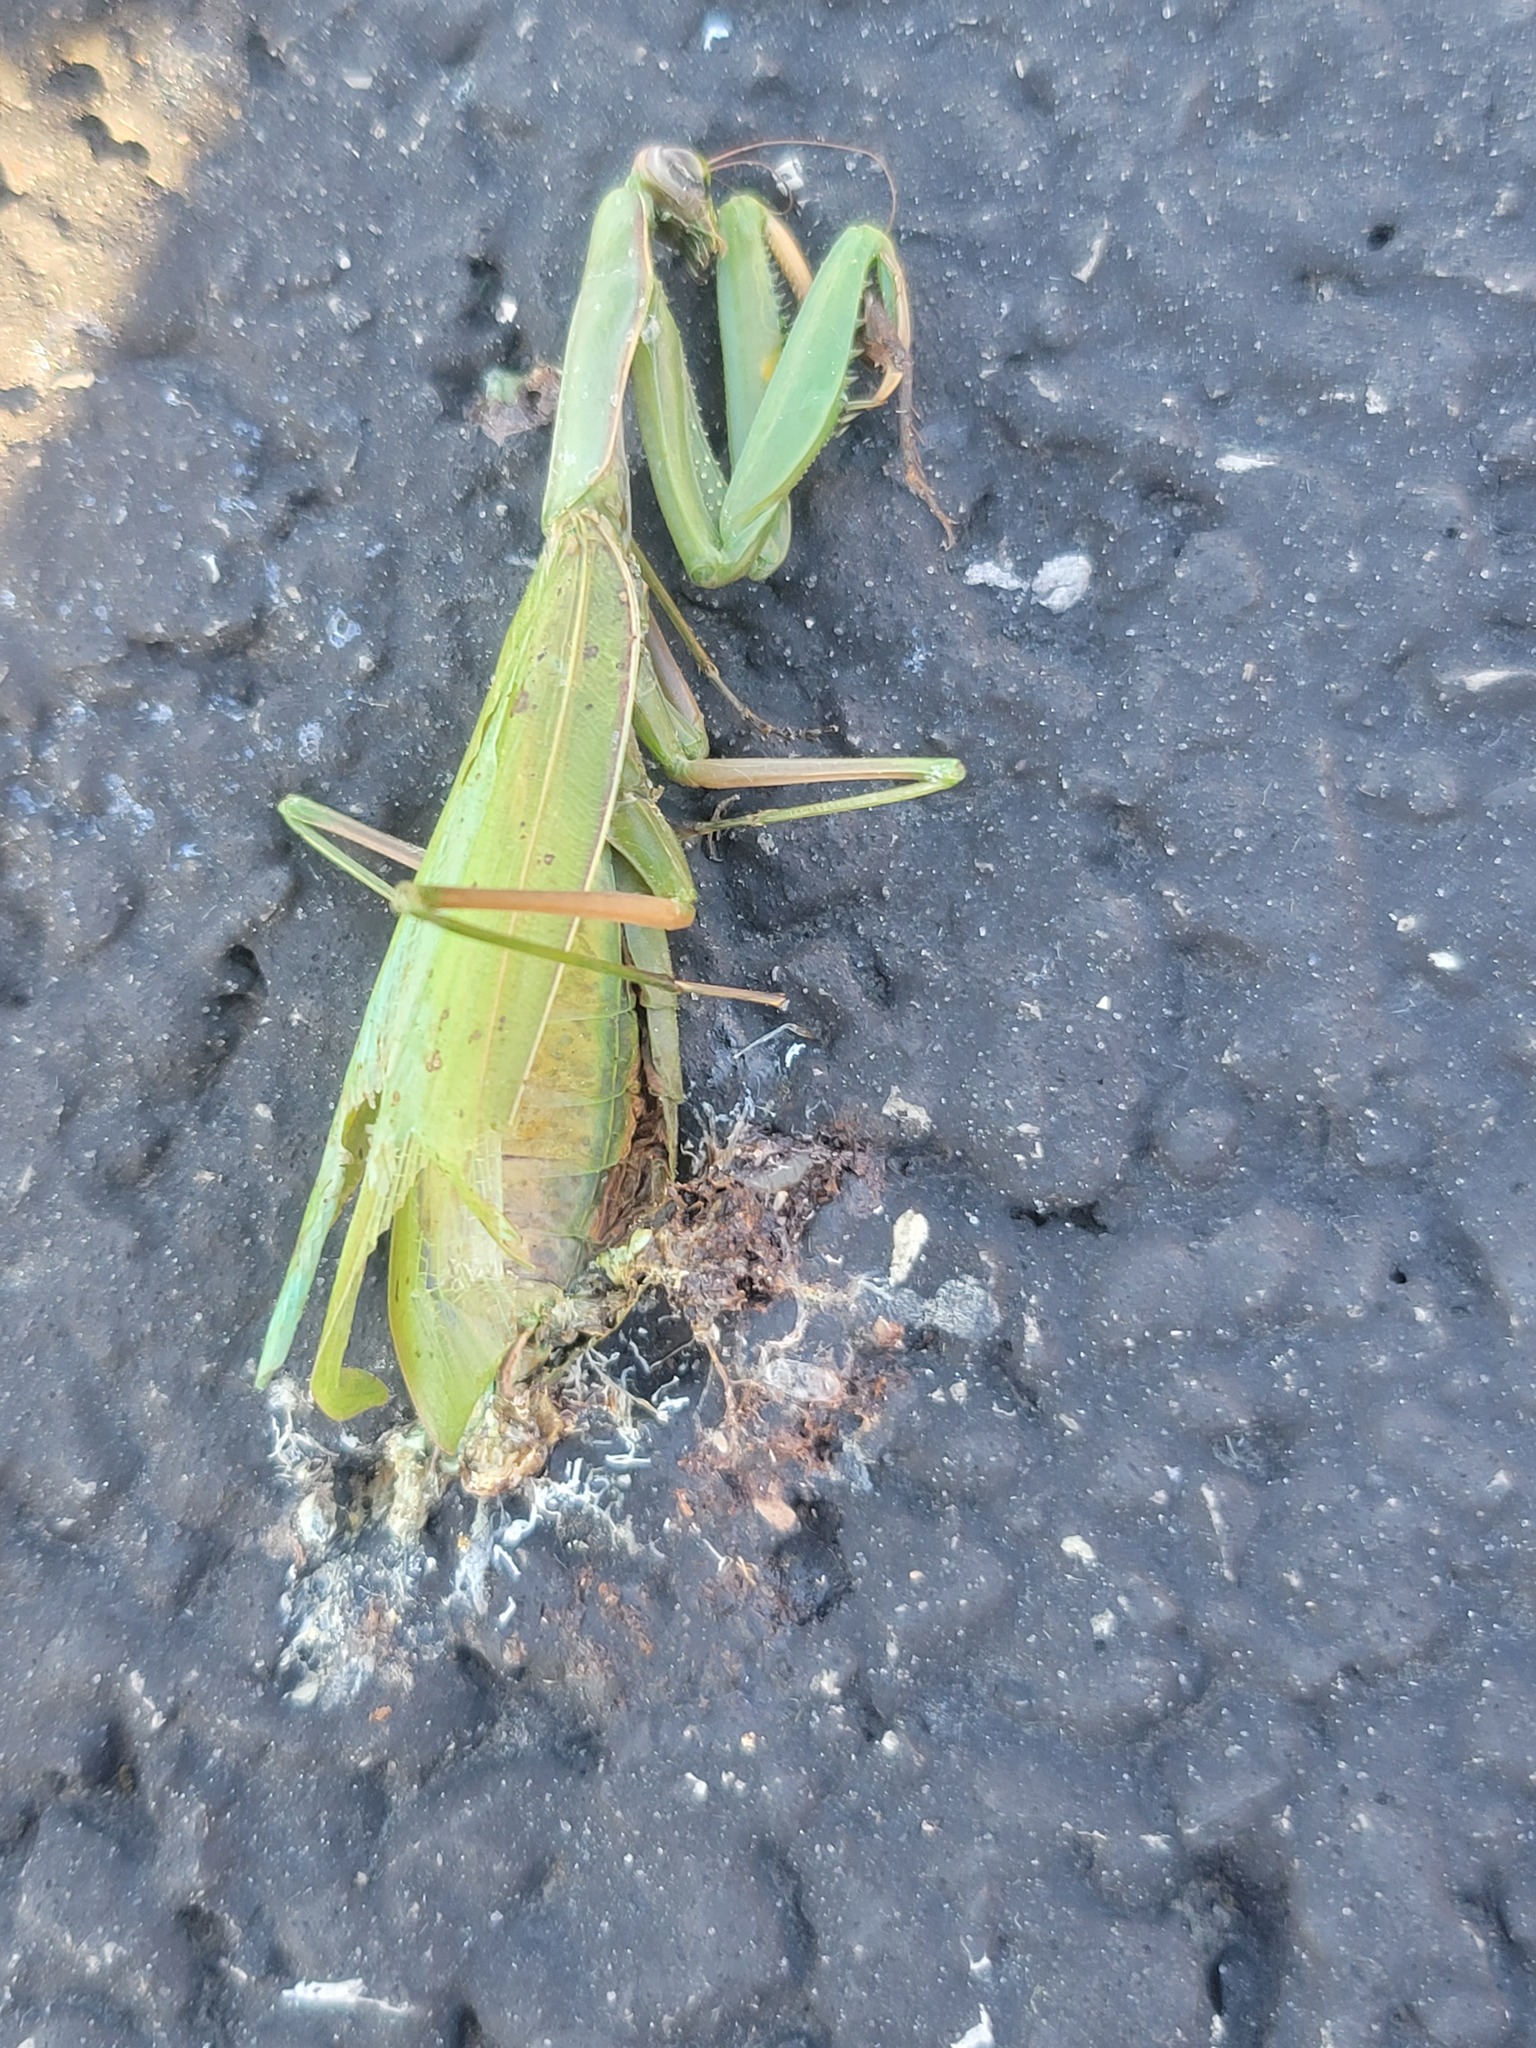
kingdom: Animalia
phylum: Arthropoda
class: Insecta
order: Mantodea
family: Mantidae
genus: Mantis
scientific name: Mantis religiosa
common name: Praying mantis
